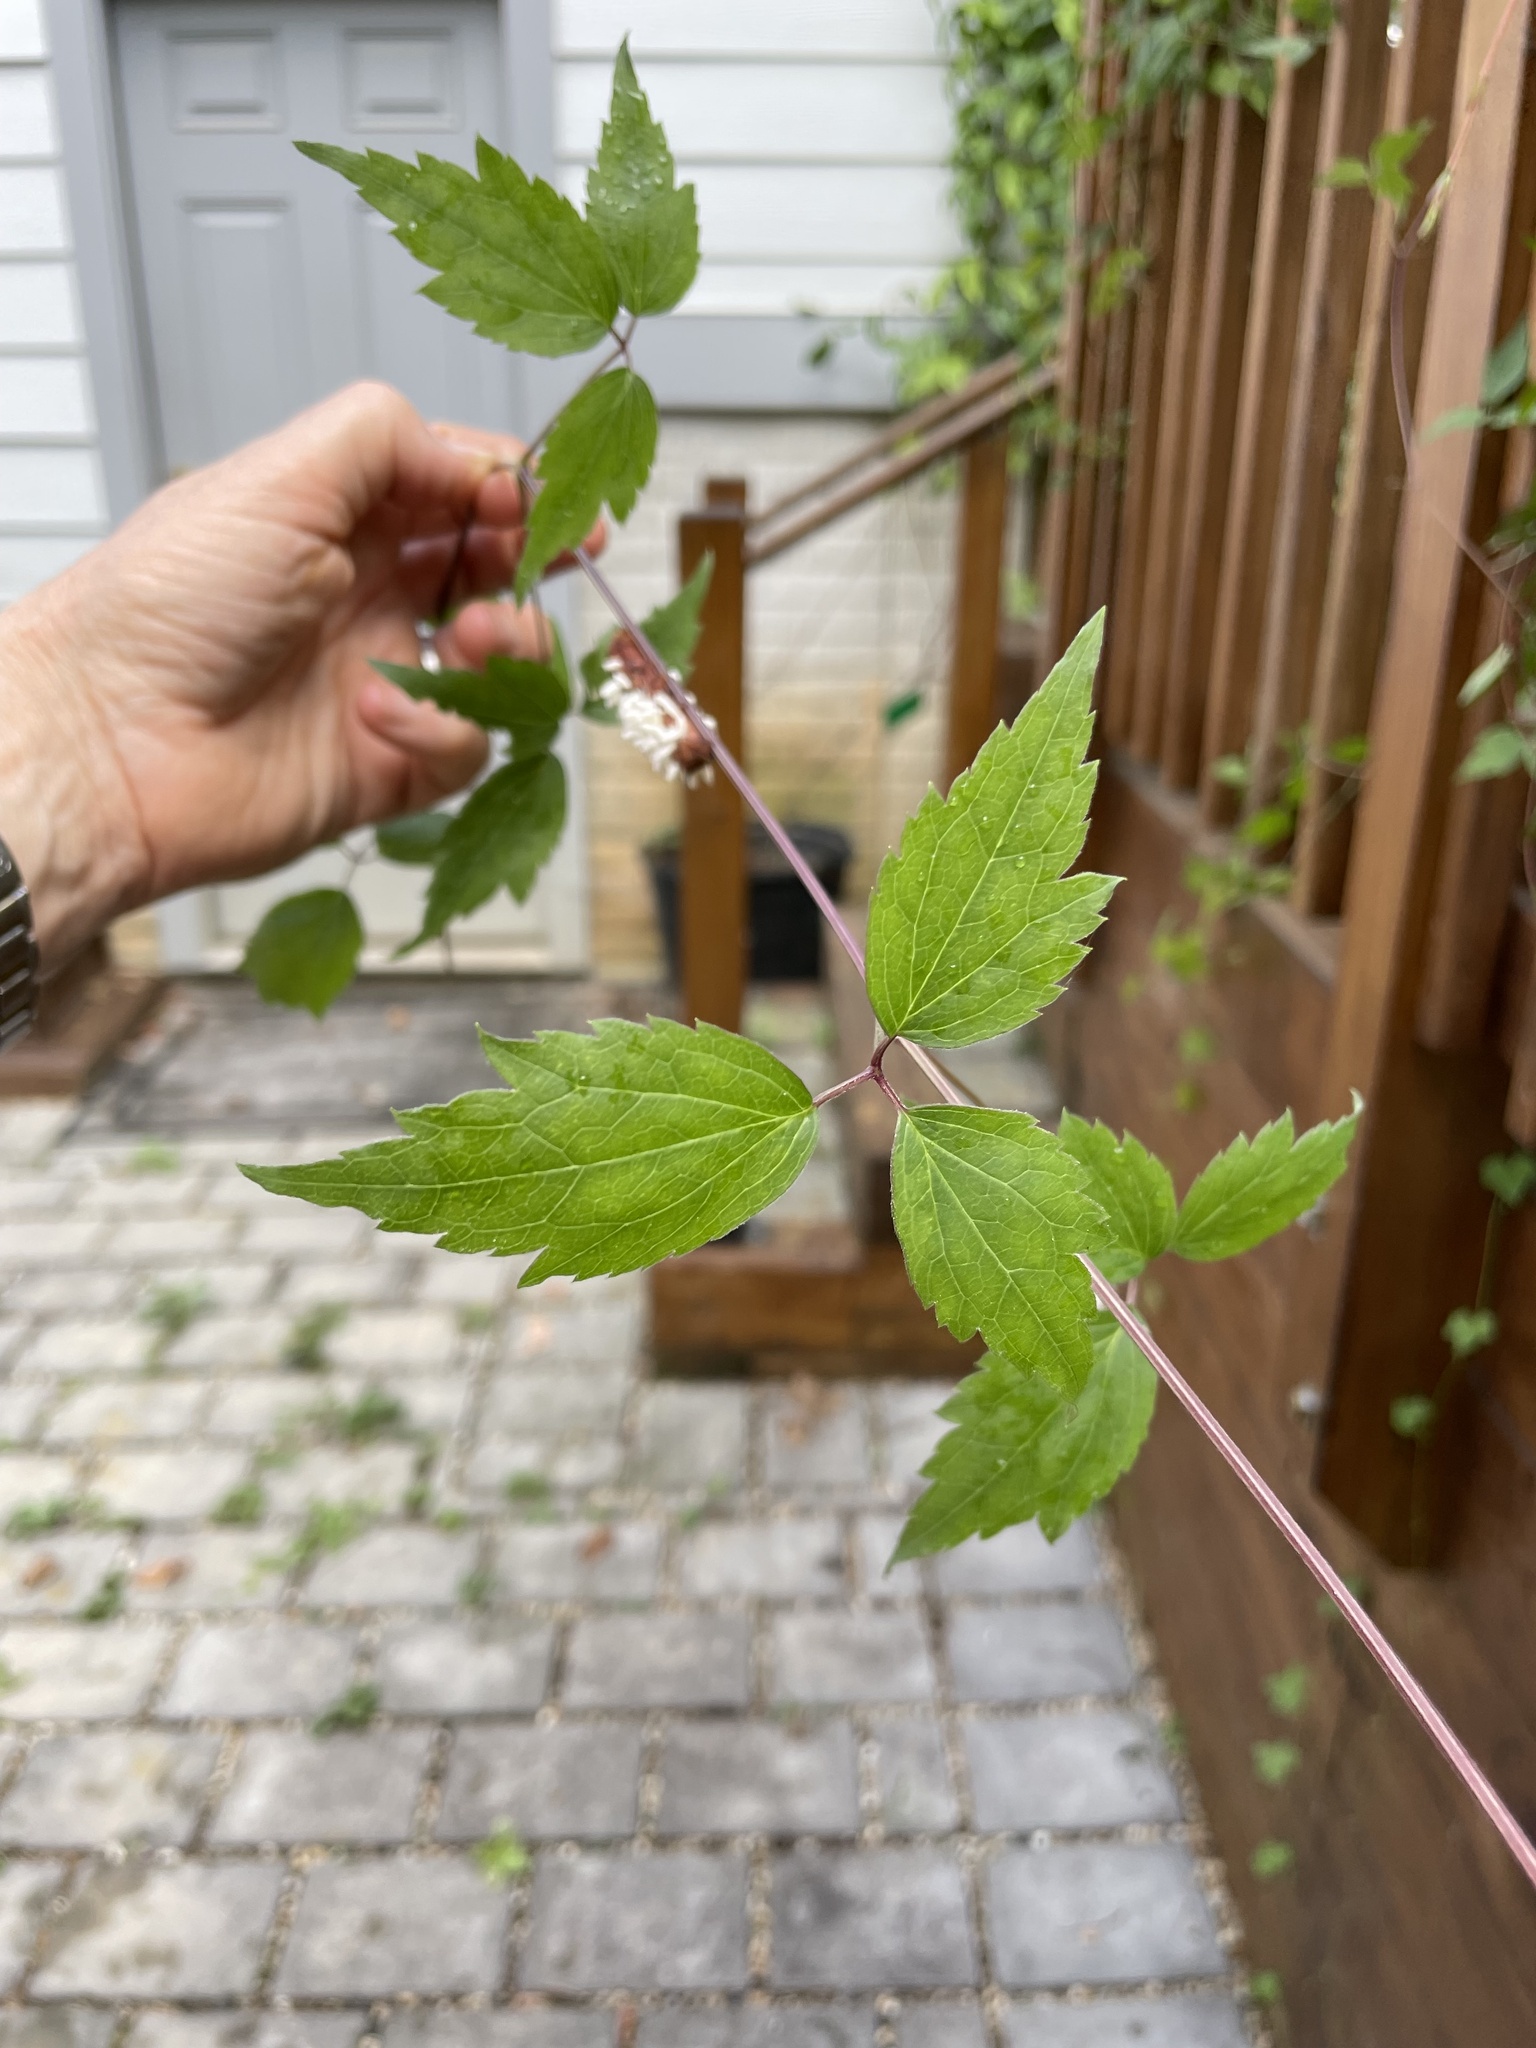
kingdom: Plantae
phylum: Tracheophyta
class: Magnoliopsida
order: Ranunculales
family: Ranunculaceae
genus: Clematis
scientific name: Clematis virginiana
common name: Virgin's-bower
